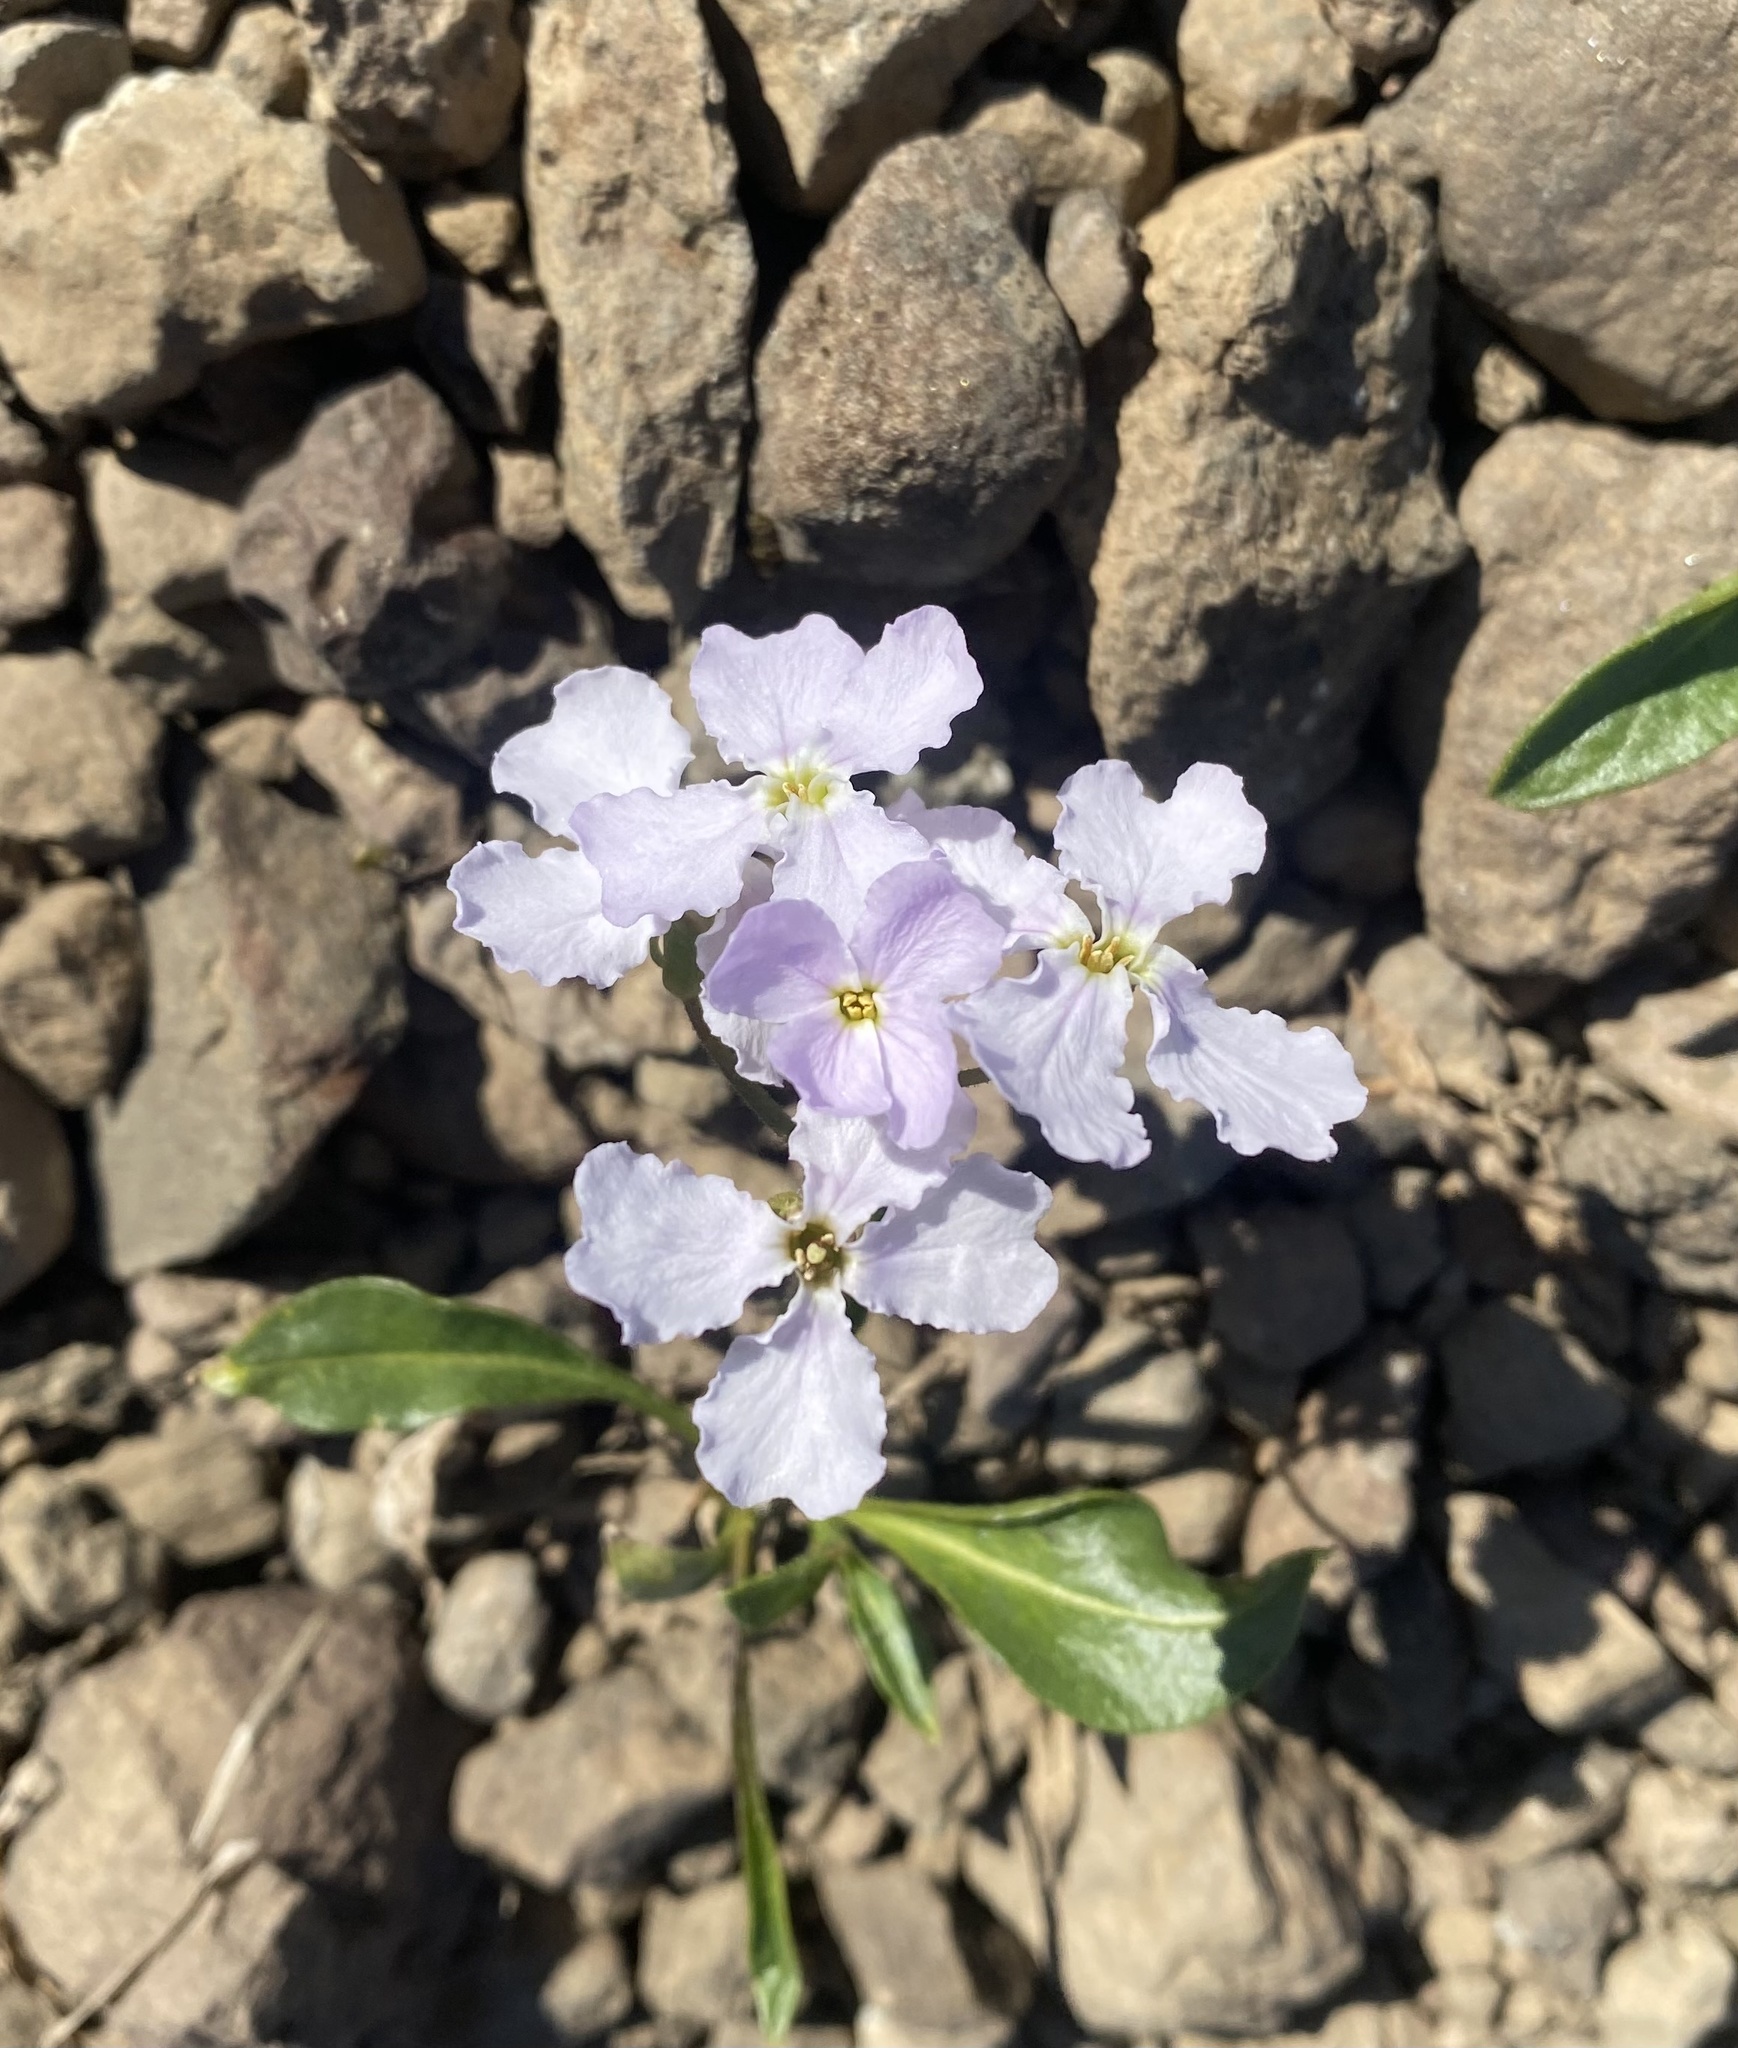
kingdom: Plantae
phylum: Tracheophyta
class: Magnoliopsida
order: Brassicales
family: Brassicaceae
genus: Parrya
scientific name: Parrya nudicaulis
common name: Naked-stemmed false wallflower
